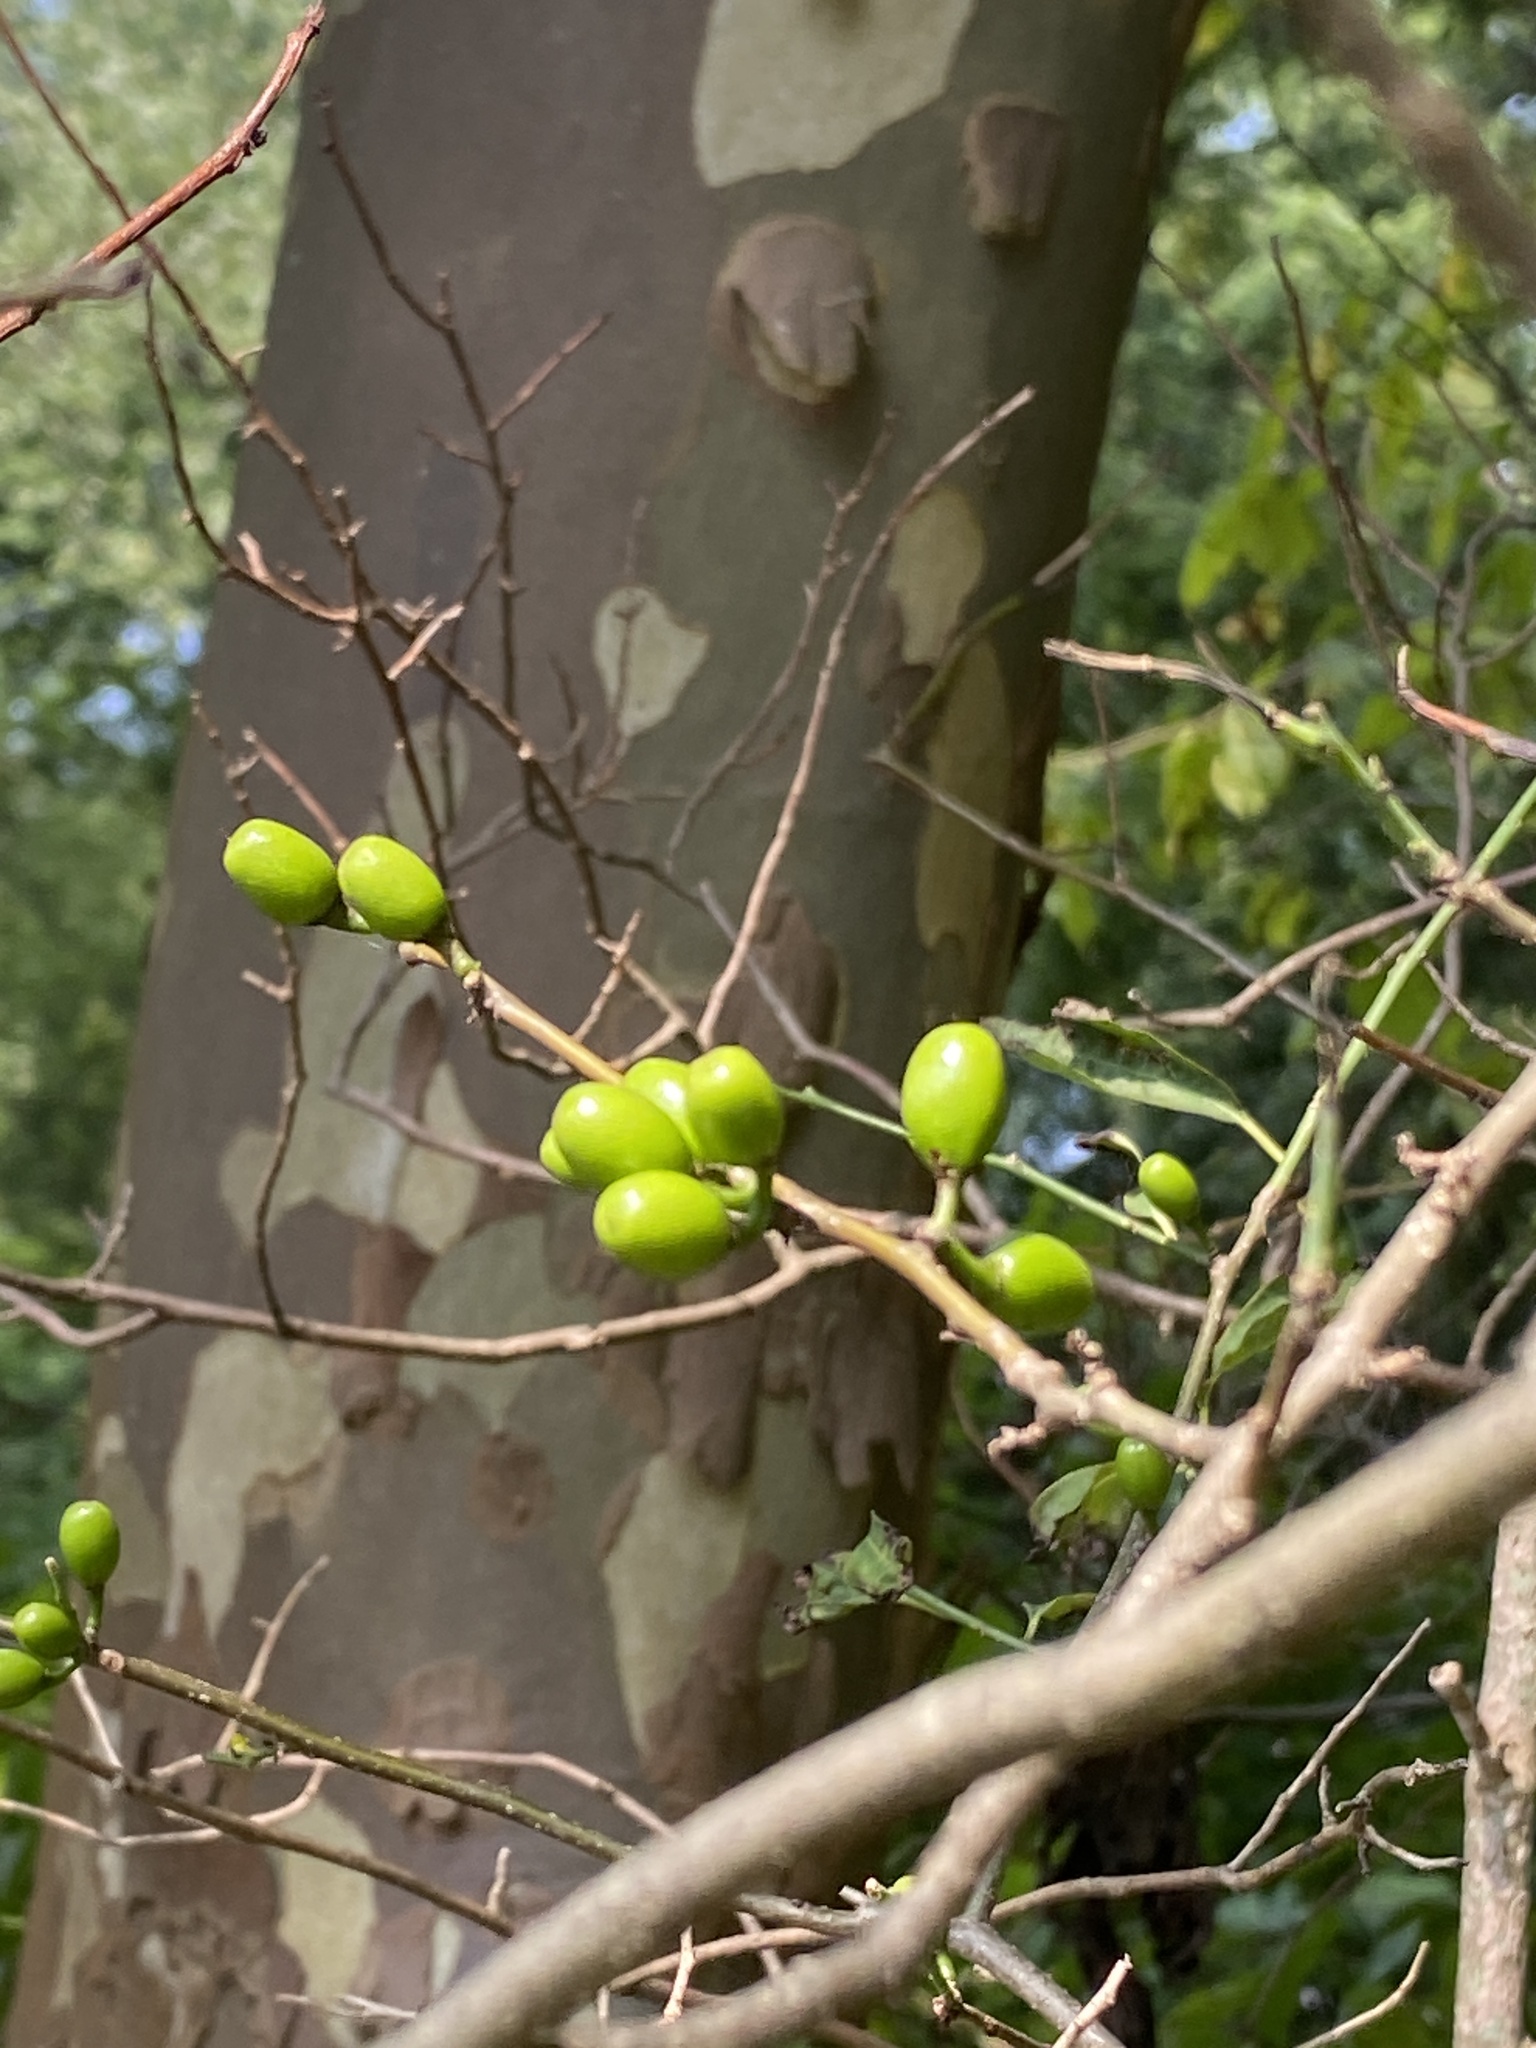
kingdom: Plantae
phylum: Tracheophyta
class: Magnoliopsida
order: Laurales
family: Lauraceae
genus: Lindera
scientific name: Lindera benzoin
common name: Spicebush
